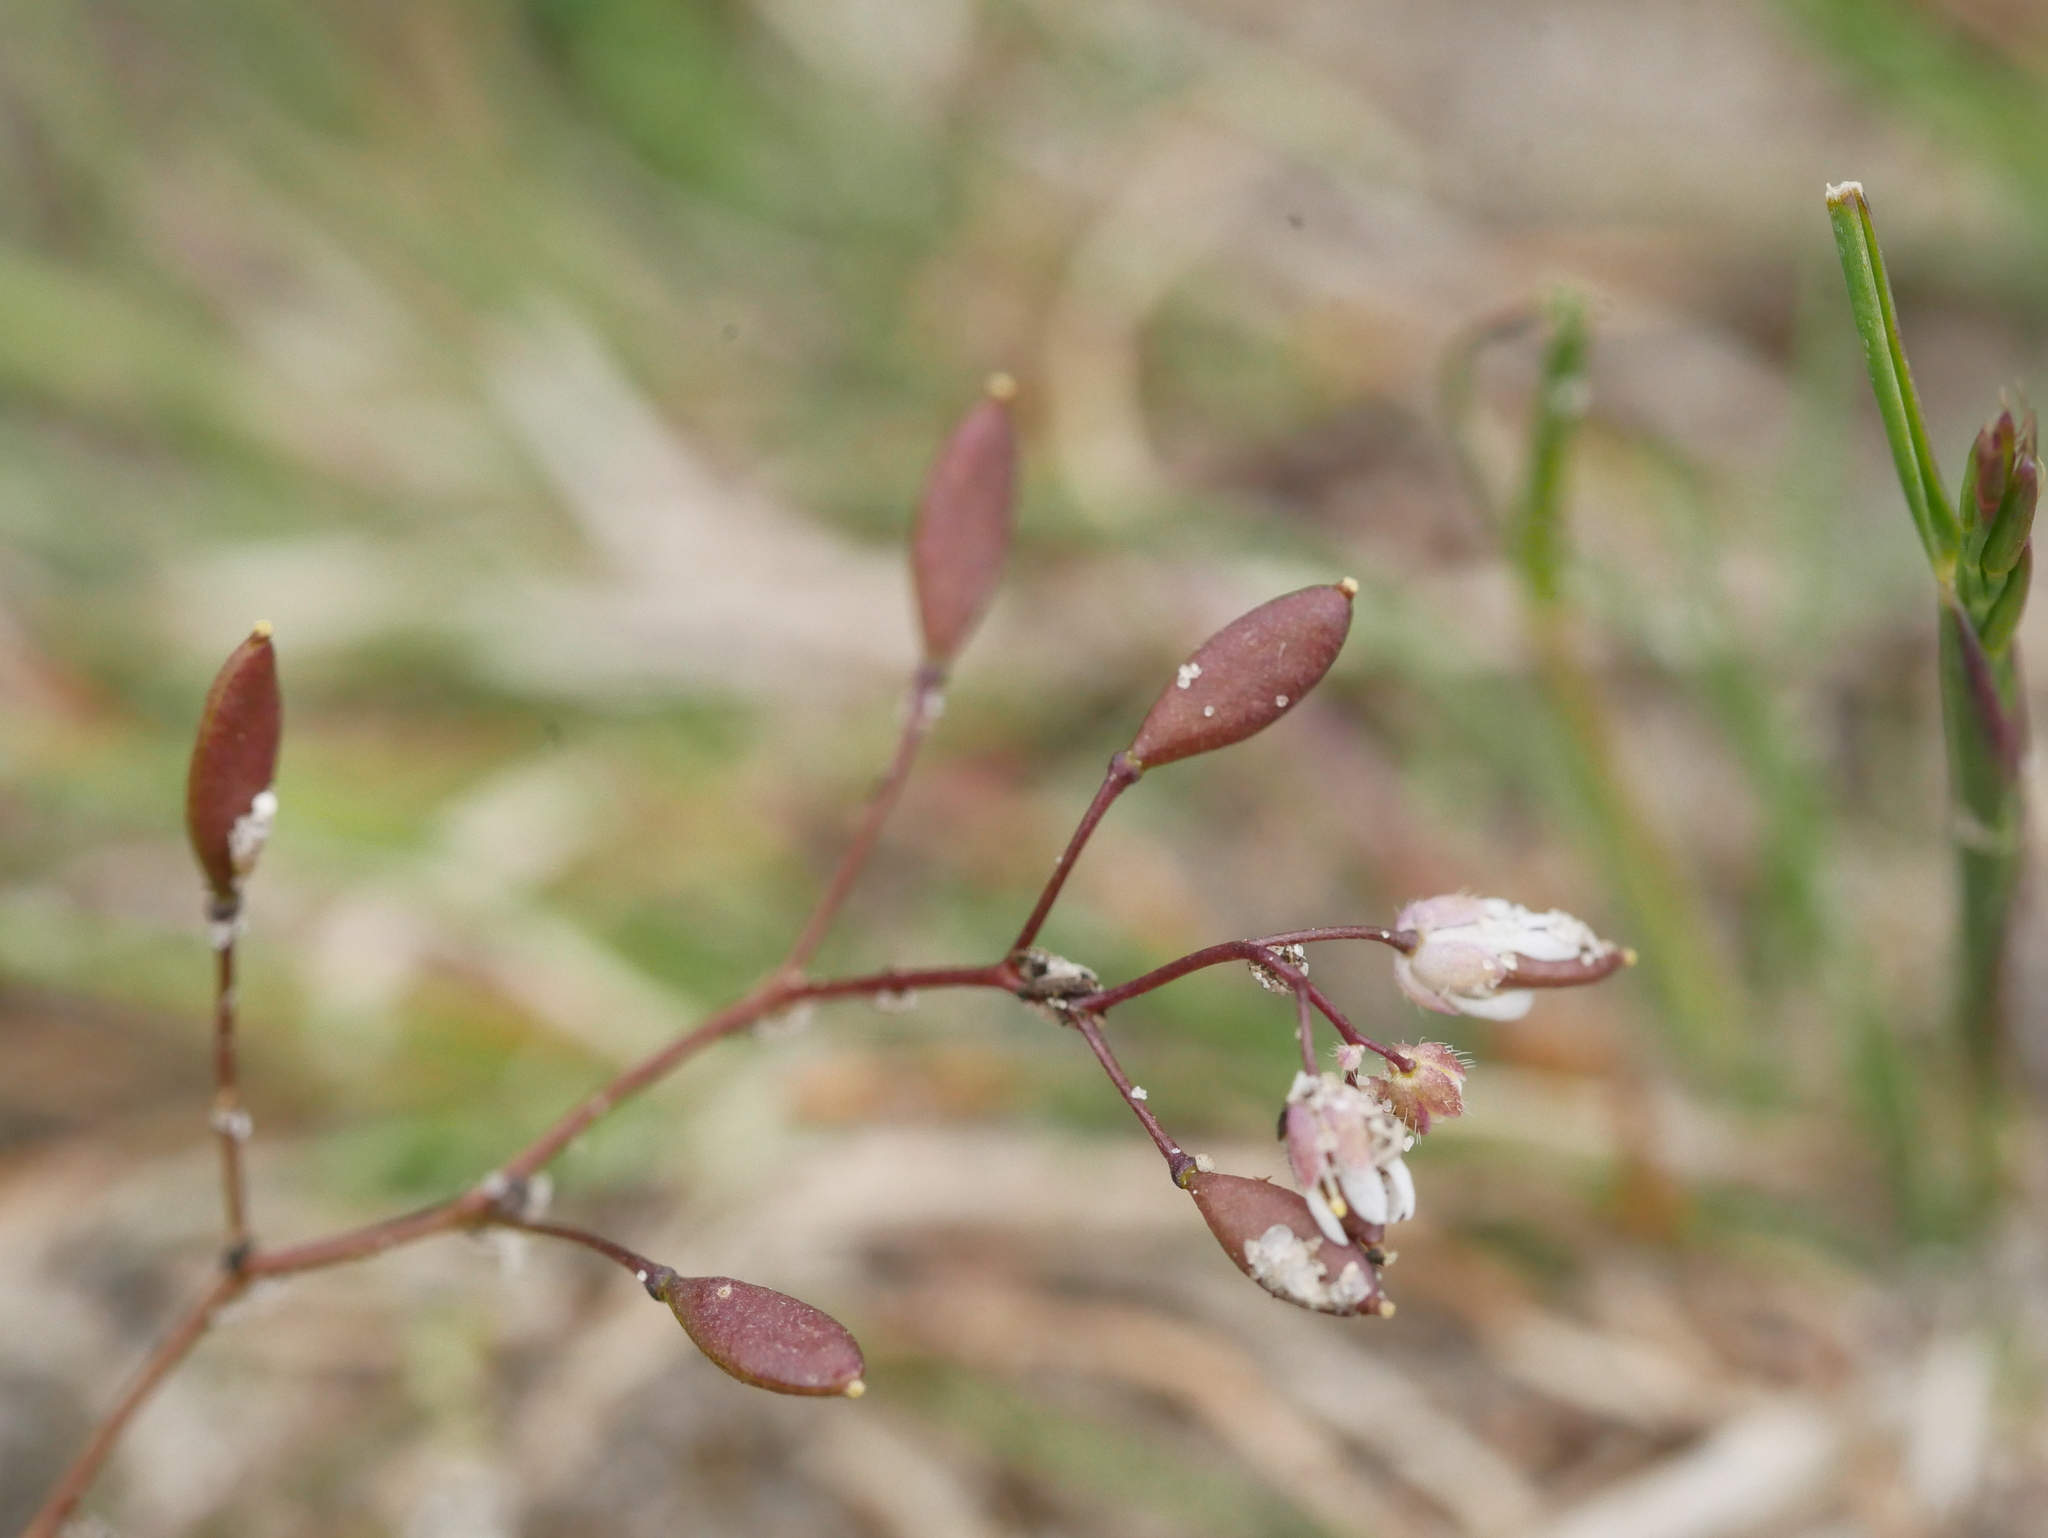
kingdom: Plantae
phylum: Tracheophyta
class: Magnoliopsida
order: Brassicales
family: Brassicaceae
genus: Draba
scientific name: Draba verna
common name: Spring draba
